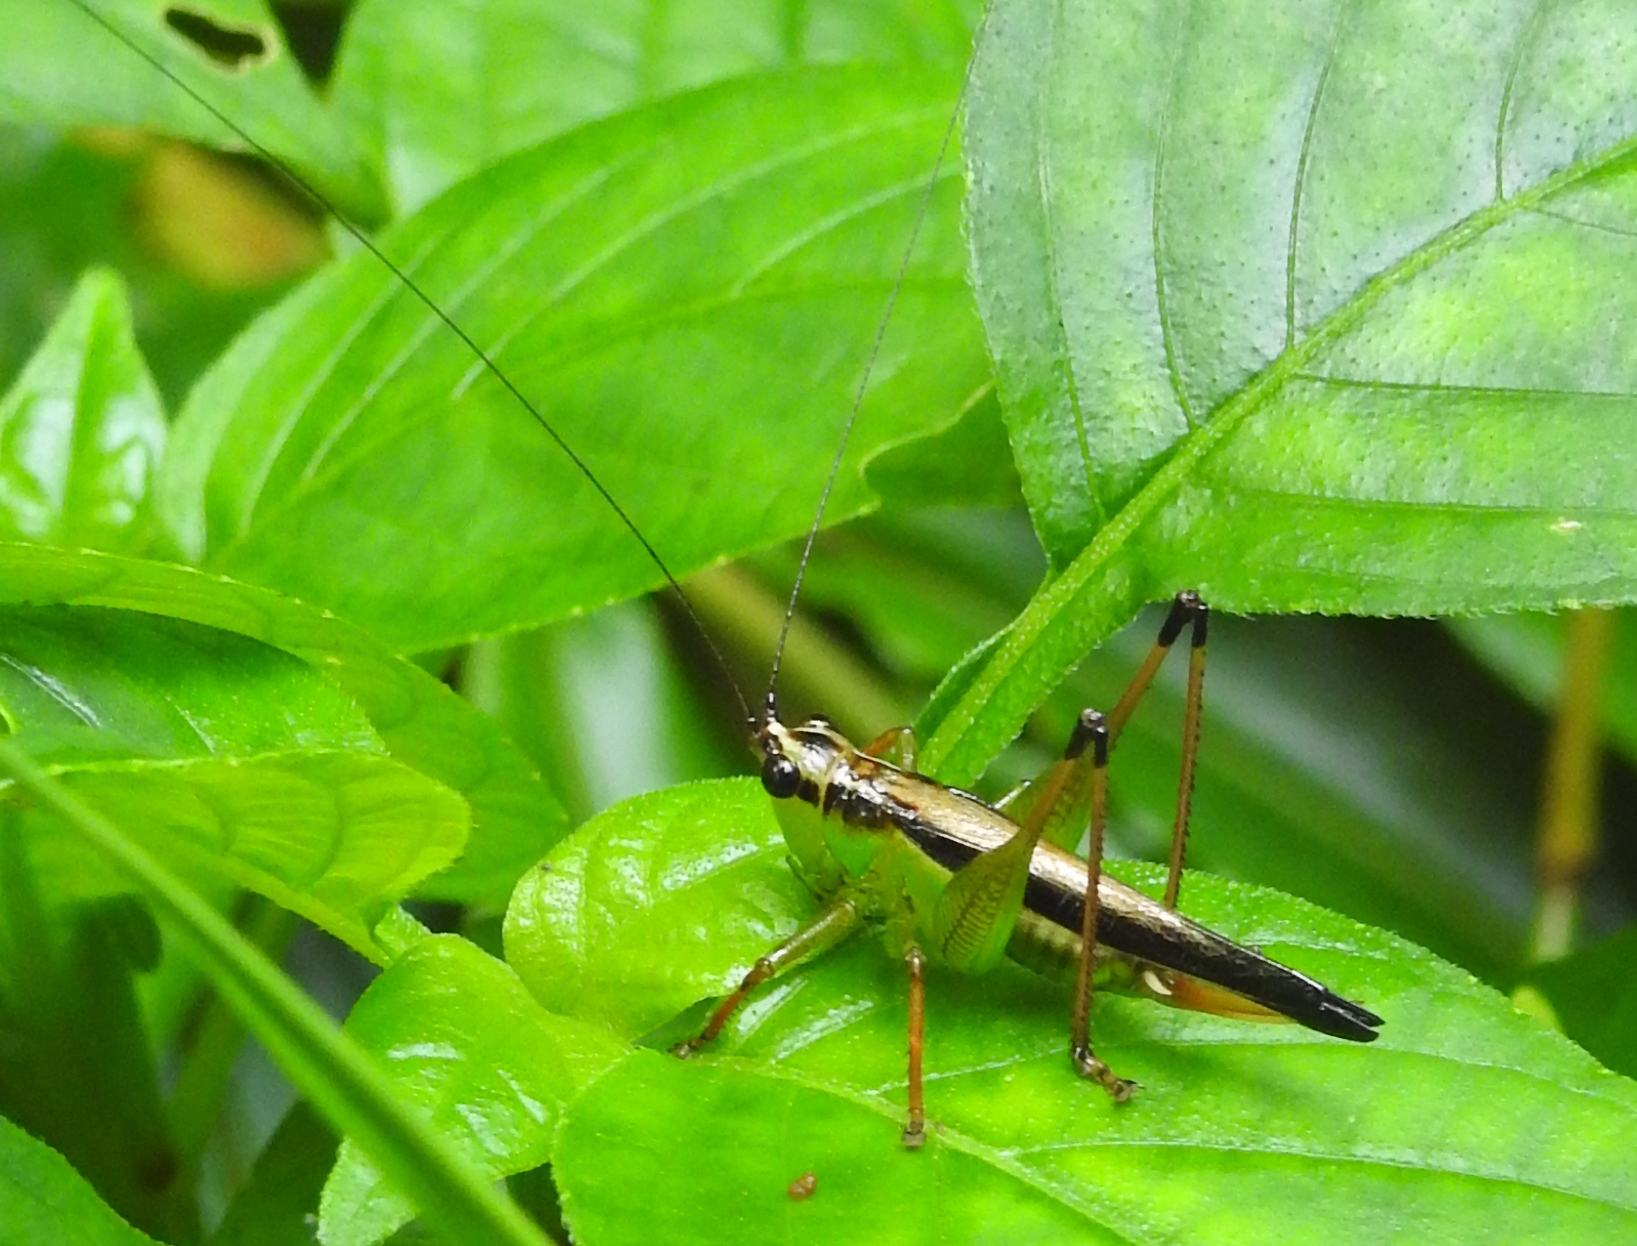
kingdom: Animalia
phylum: Arthropoda
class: Insecta
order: Orthoptera
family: Tettigoniidae
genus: Conocephalus
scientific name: Conocephalus melaenus
